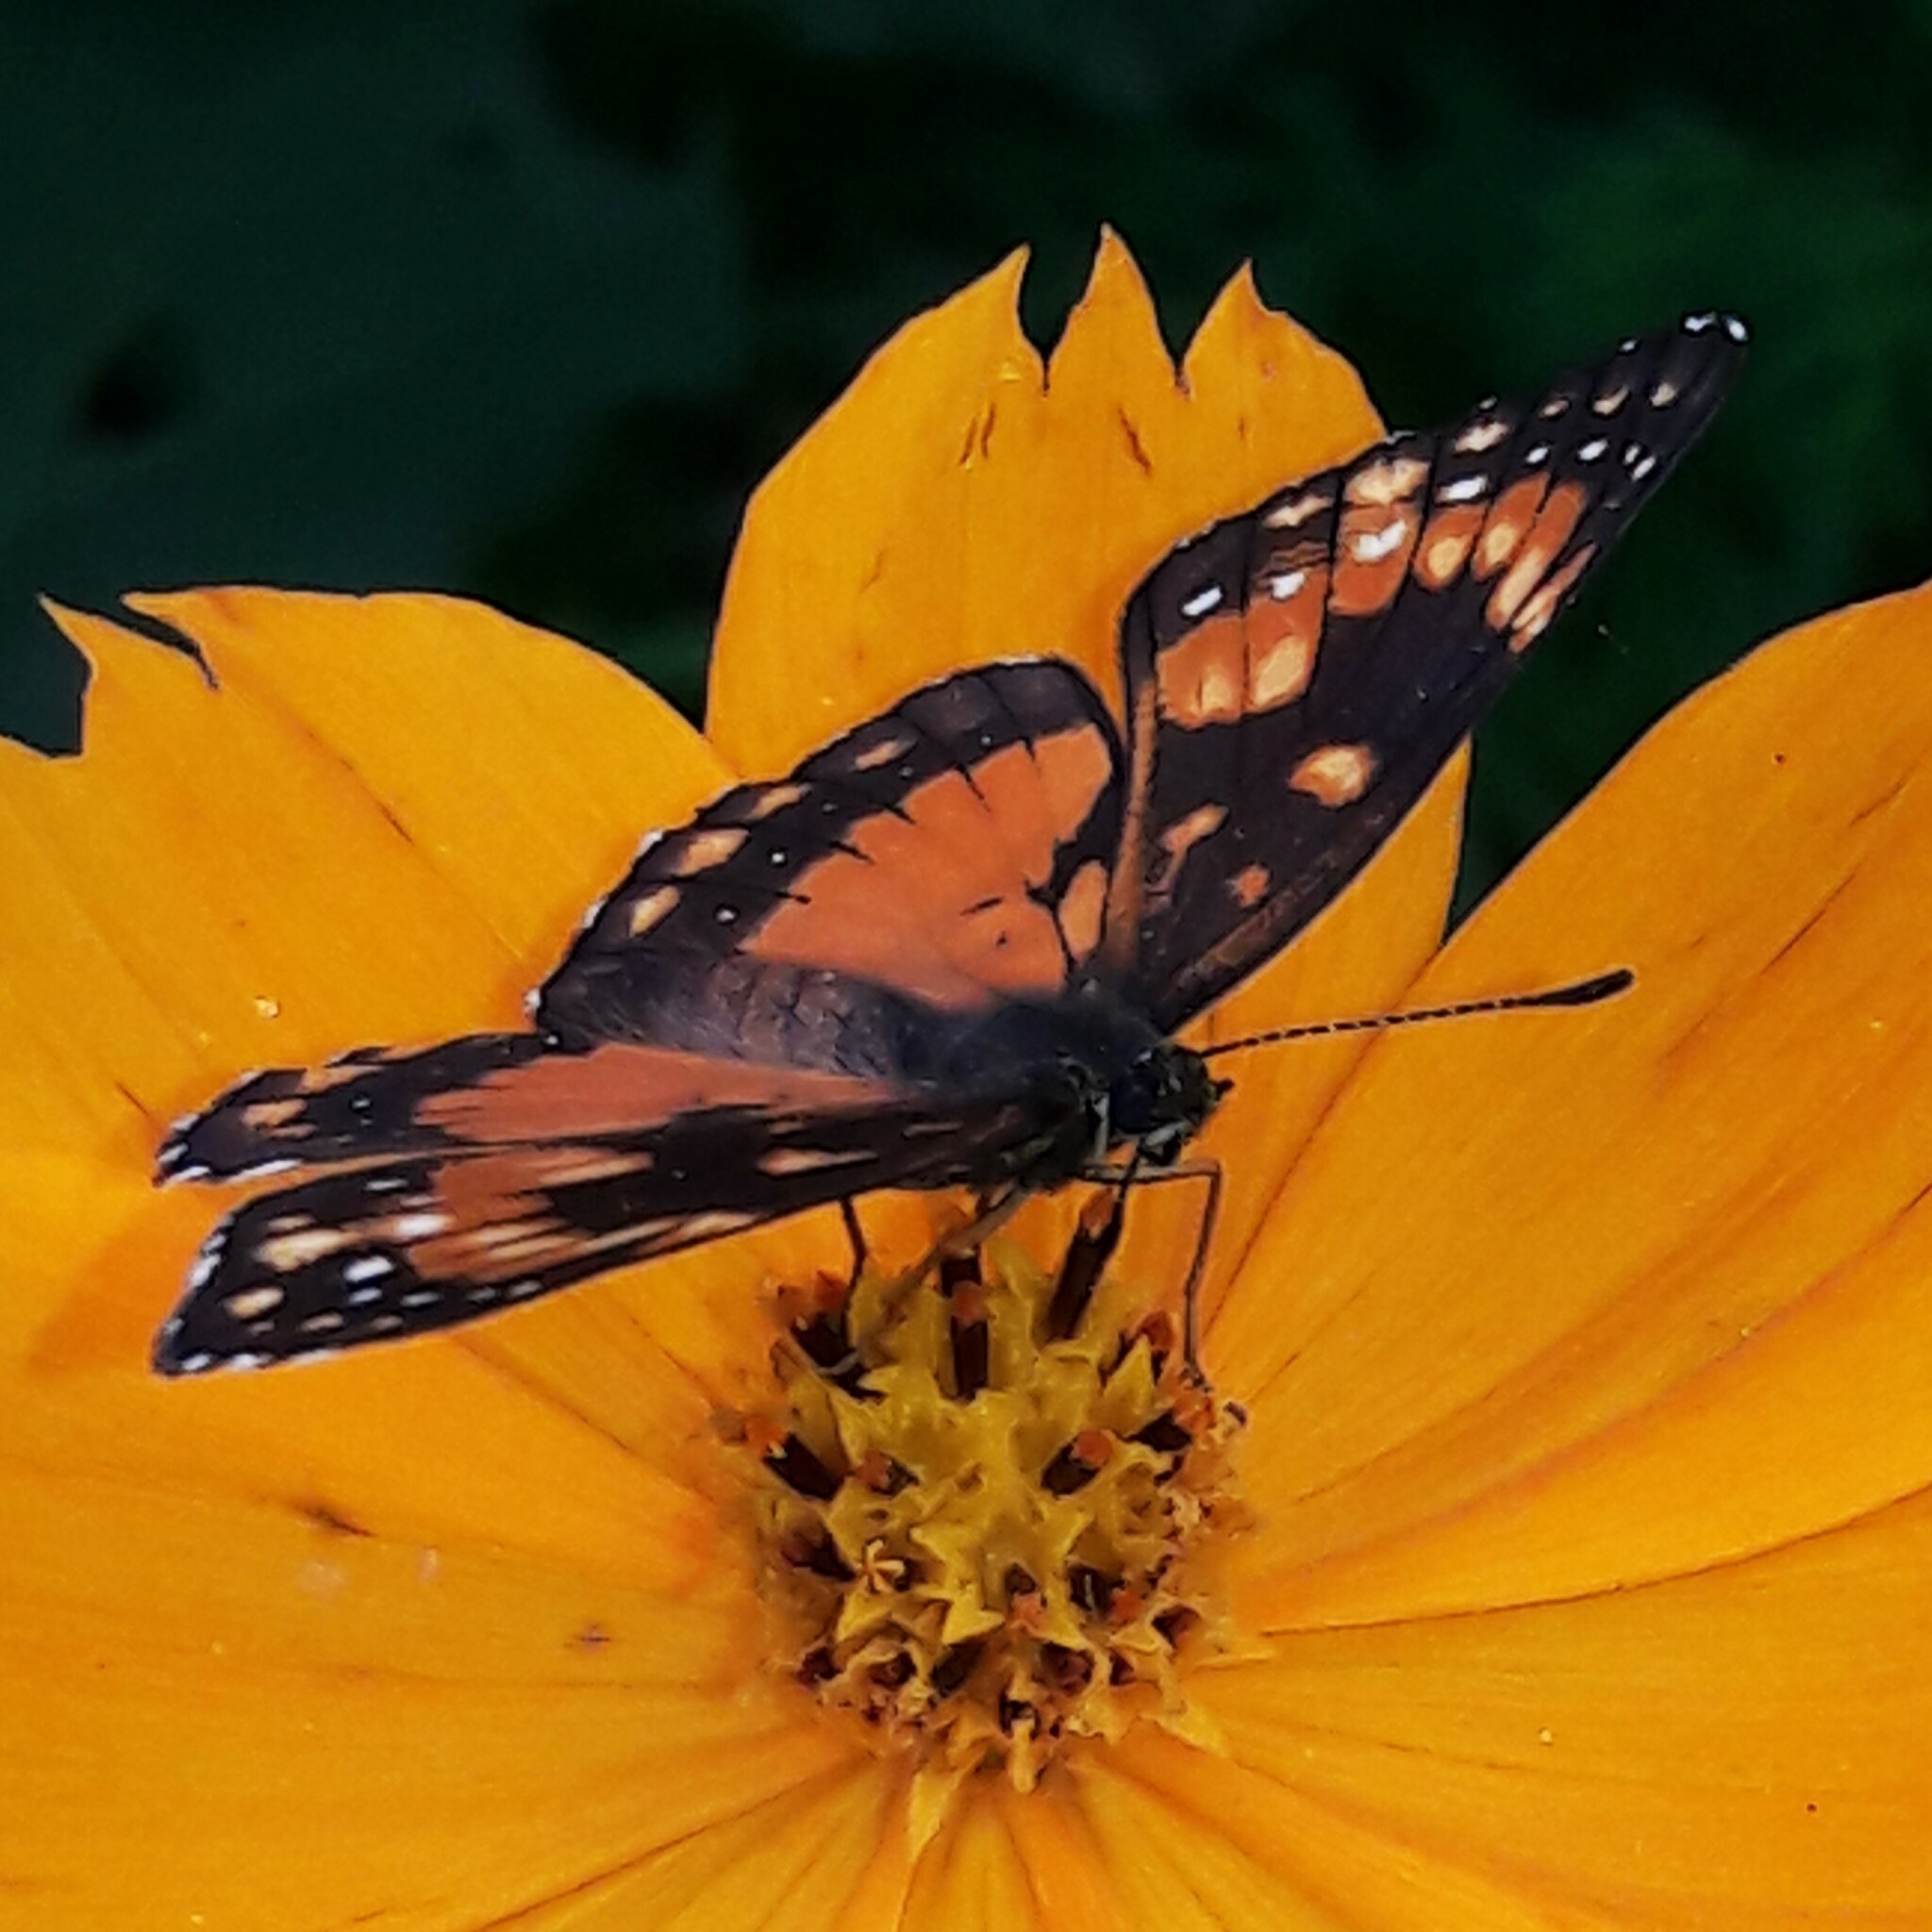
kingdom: Animalia
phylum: Arthropoda
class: Insecta
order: Lepidoptera
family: Nymphalidae
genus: Chlosyne
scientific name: Chlosyne lacinia
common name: Bordered patch
